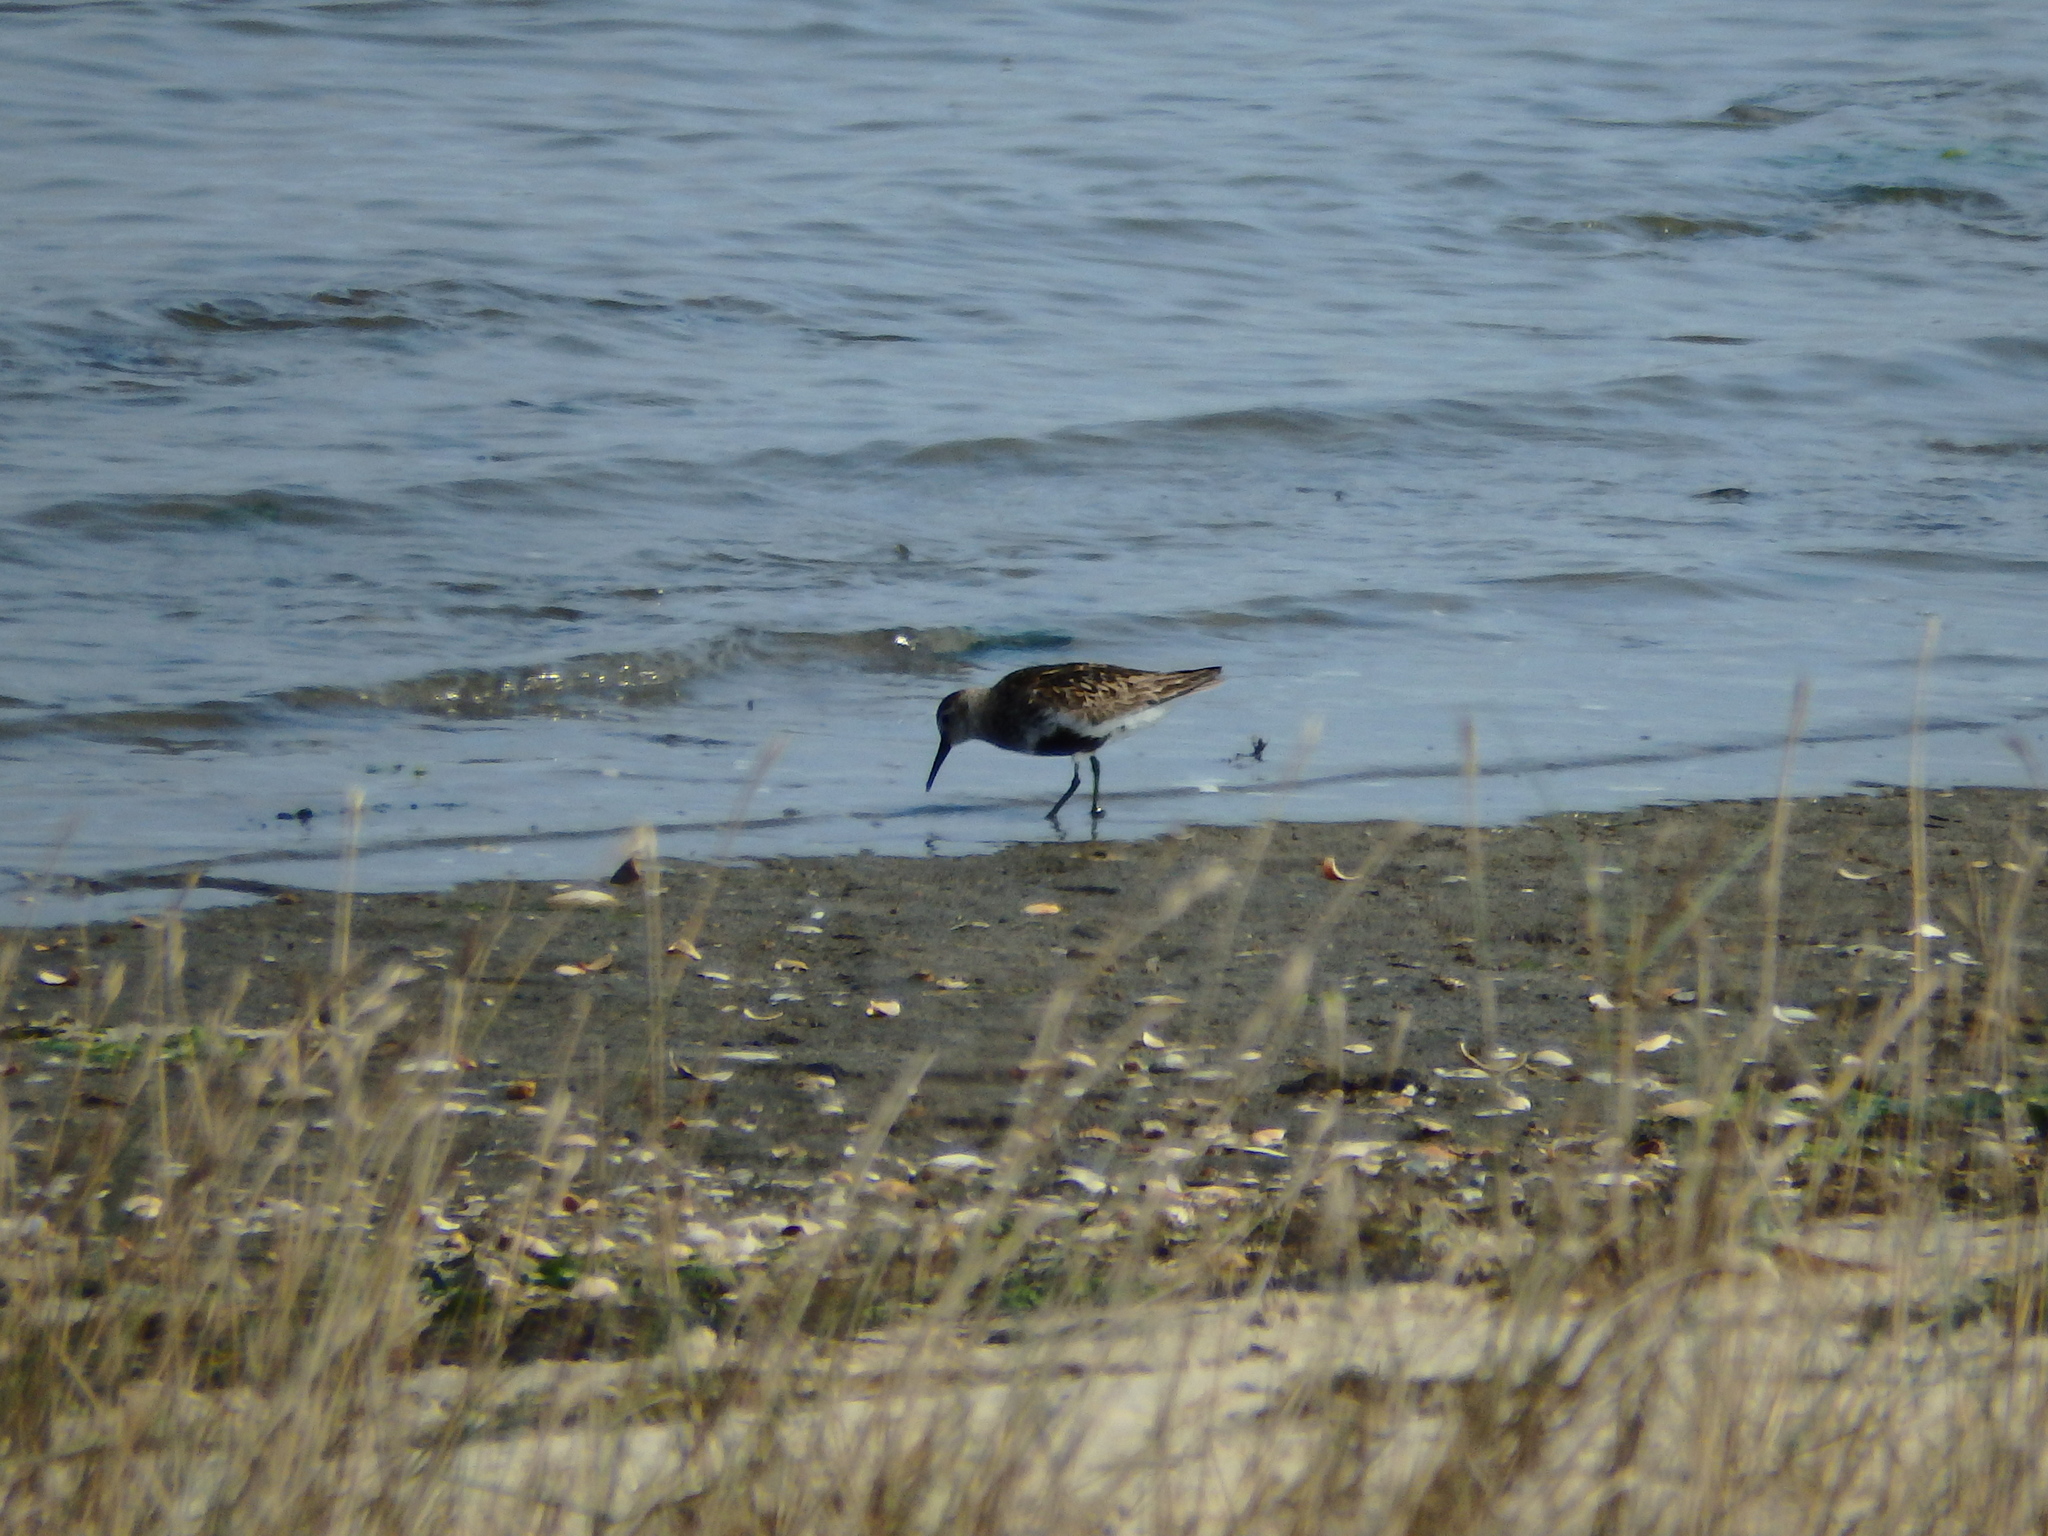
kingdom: Animalia
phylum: Chordata
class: Aves
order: Charadriiformes
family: Scolopacidae
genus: Calidris
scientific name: Calidris alpina
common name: Dunlin
